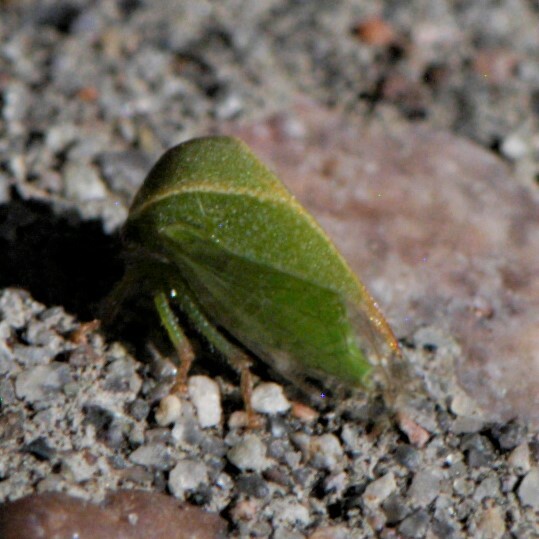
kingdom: Animalia
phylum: Arthropoda
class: Insecta
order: Hemiptera
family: Membracidae
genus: Spissistilus
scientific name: Spissistilus festina
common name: Membracid bug
